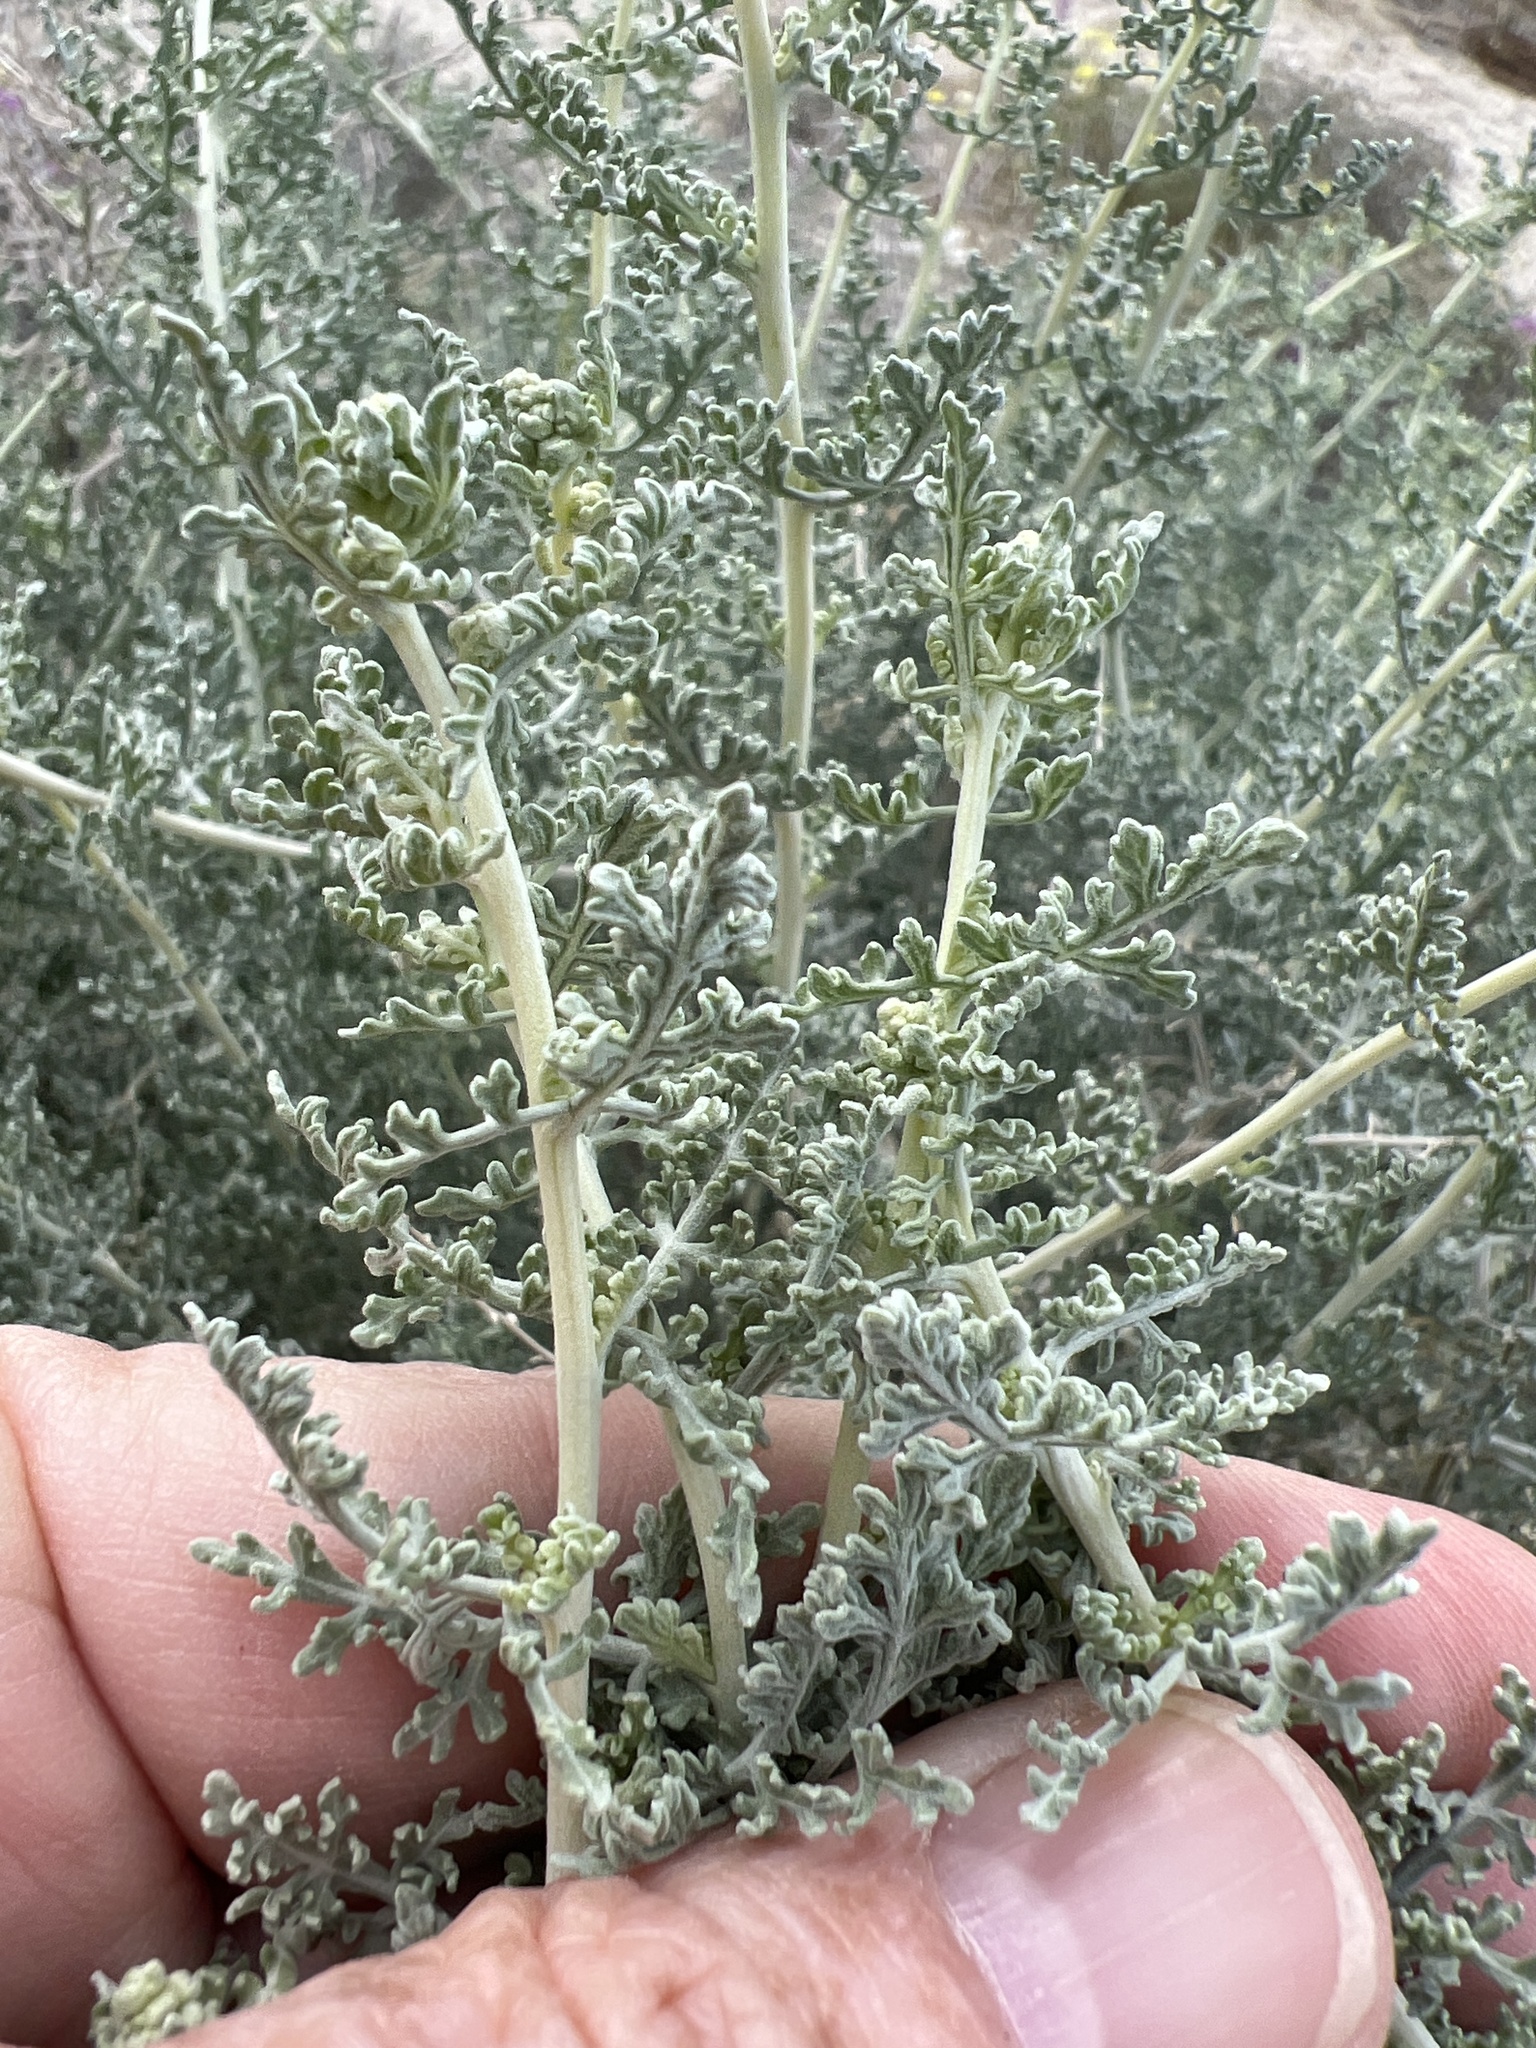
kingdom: Plantae
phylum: Tracheophyta
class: Magnoliopsida
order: Asterales
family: Asteraceae
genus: Ambrosia
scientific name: Ambrosia dumosa
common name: Bur-sage
